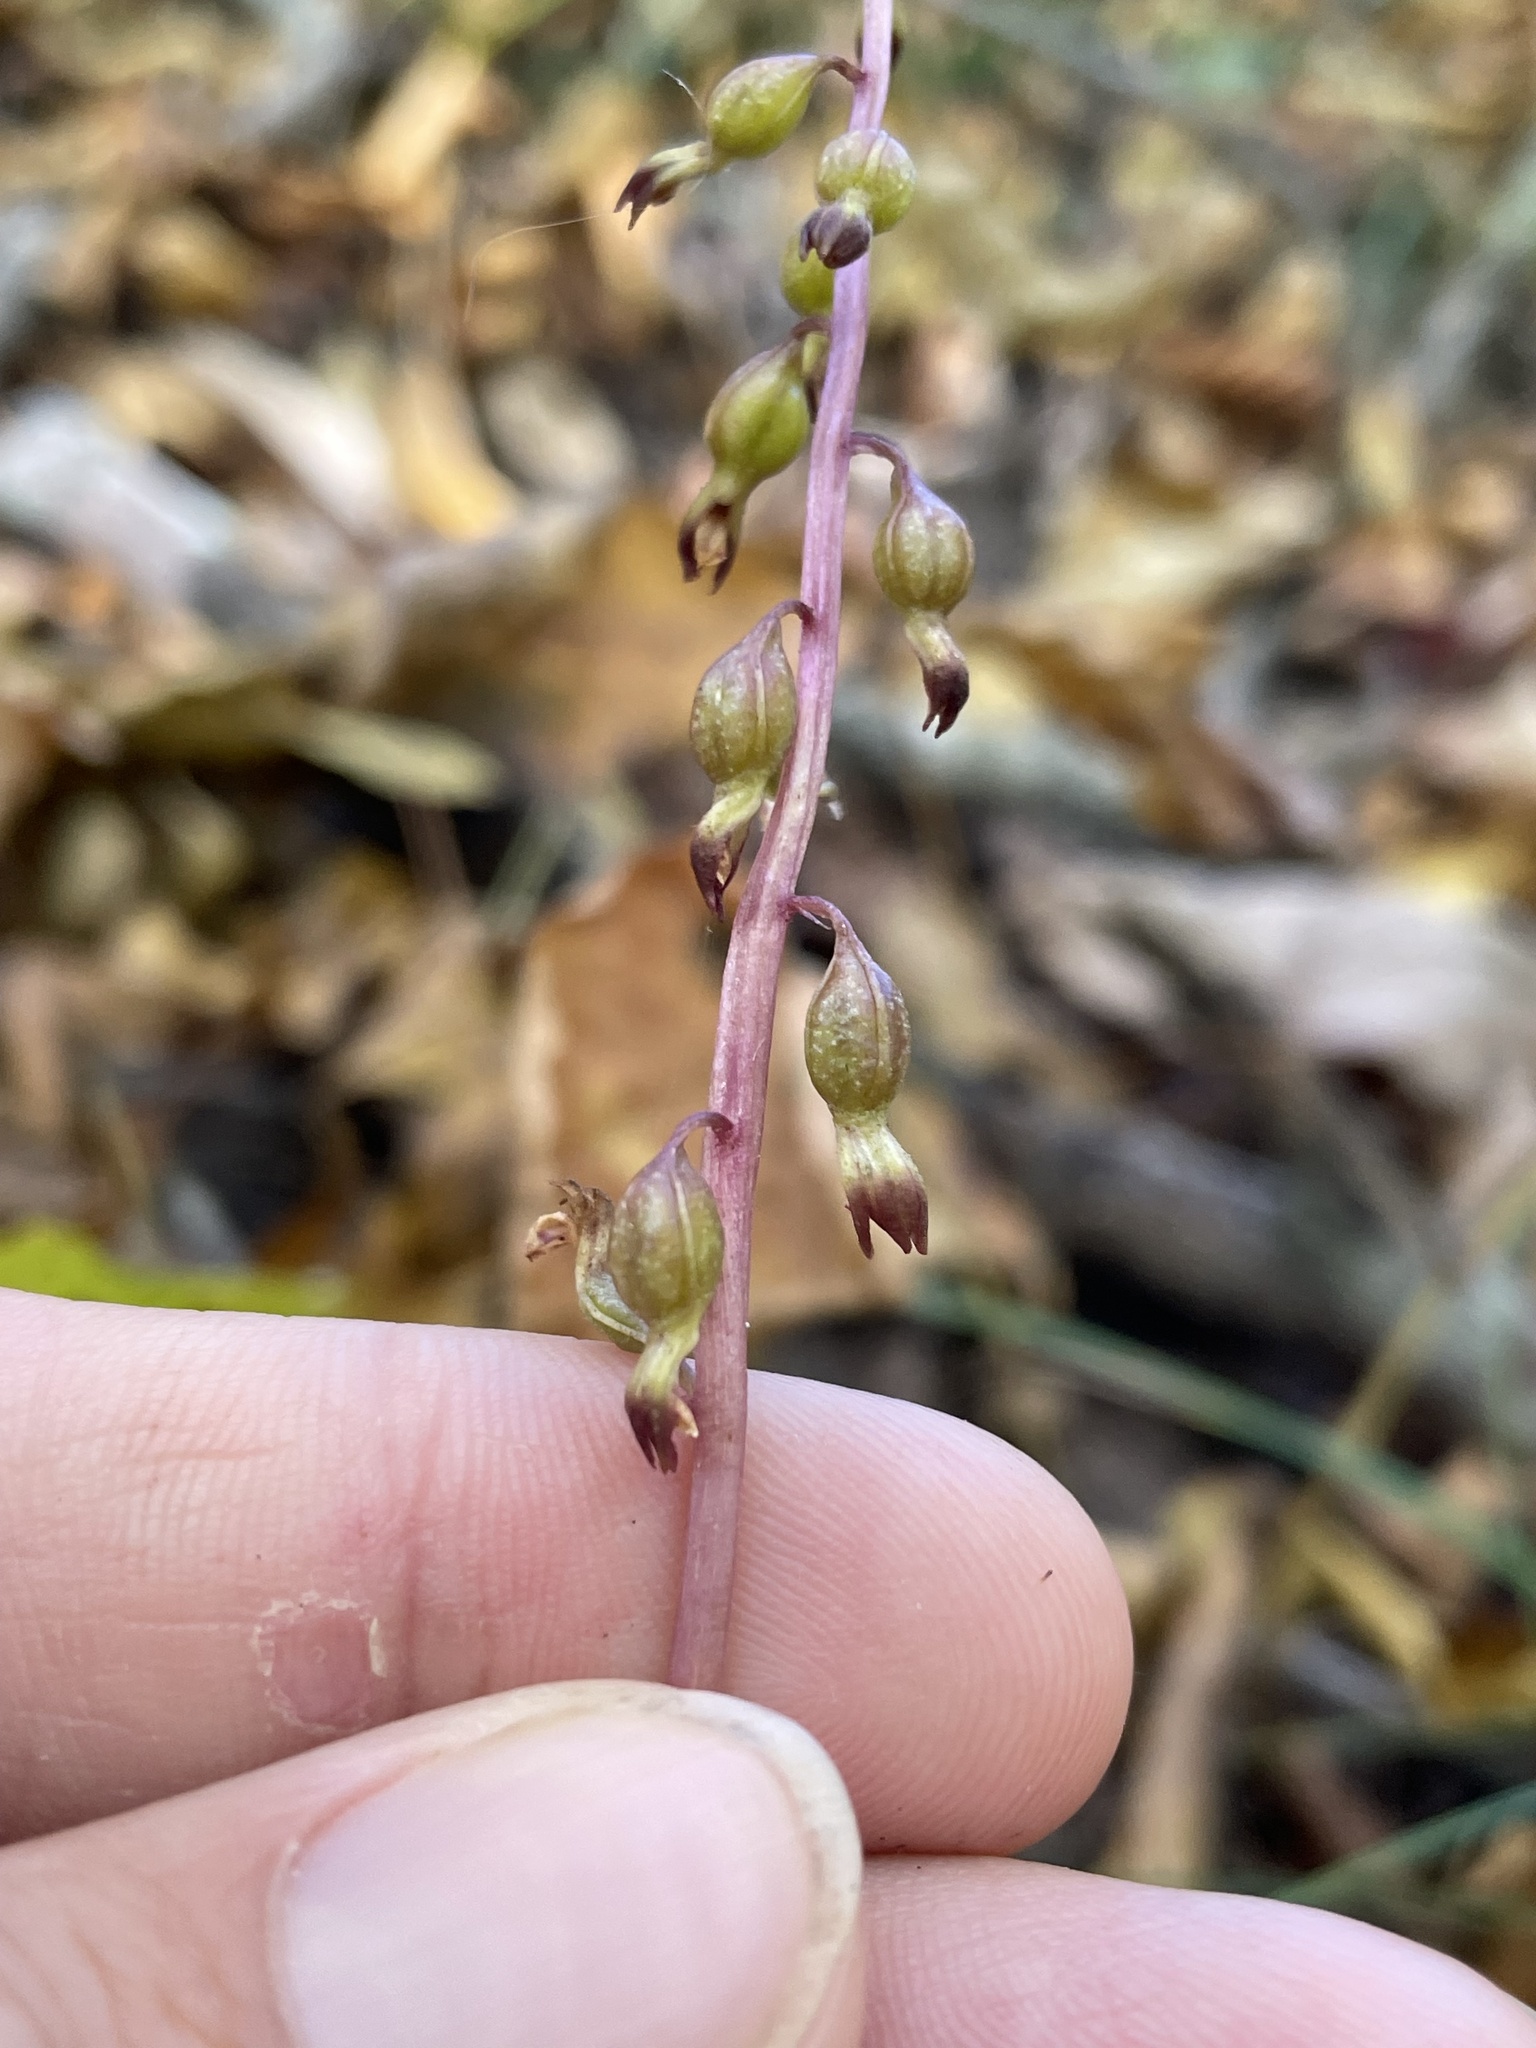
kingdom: Plantae
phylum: Tracheophyta
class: Liliopsida
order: Asparagales
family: Orchidaceae
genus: Corallorhiza
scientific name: Corallorhiza odontorhiza
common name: Autumn coralroot
